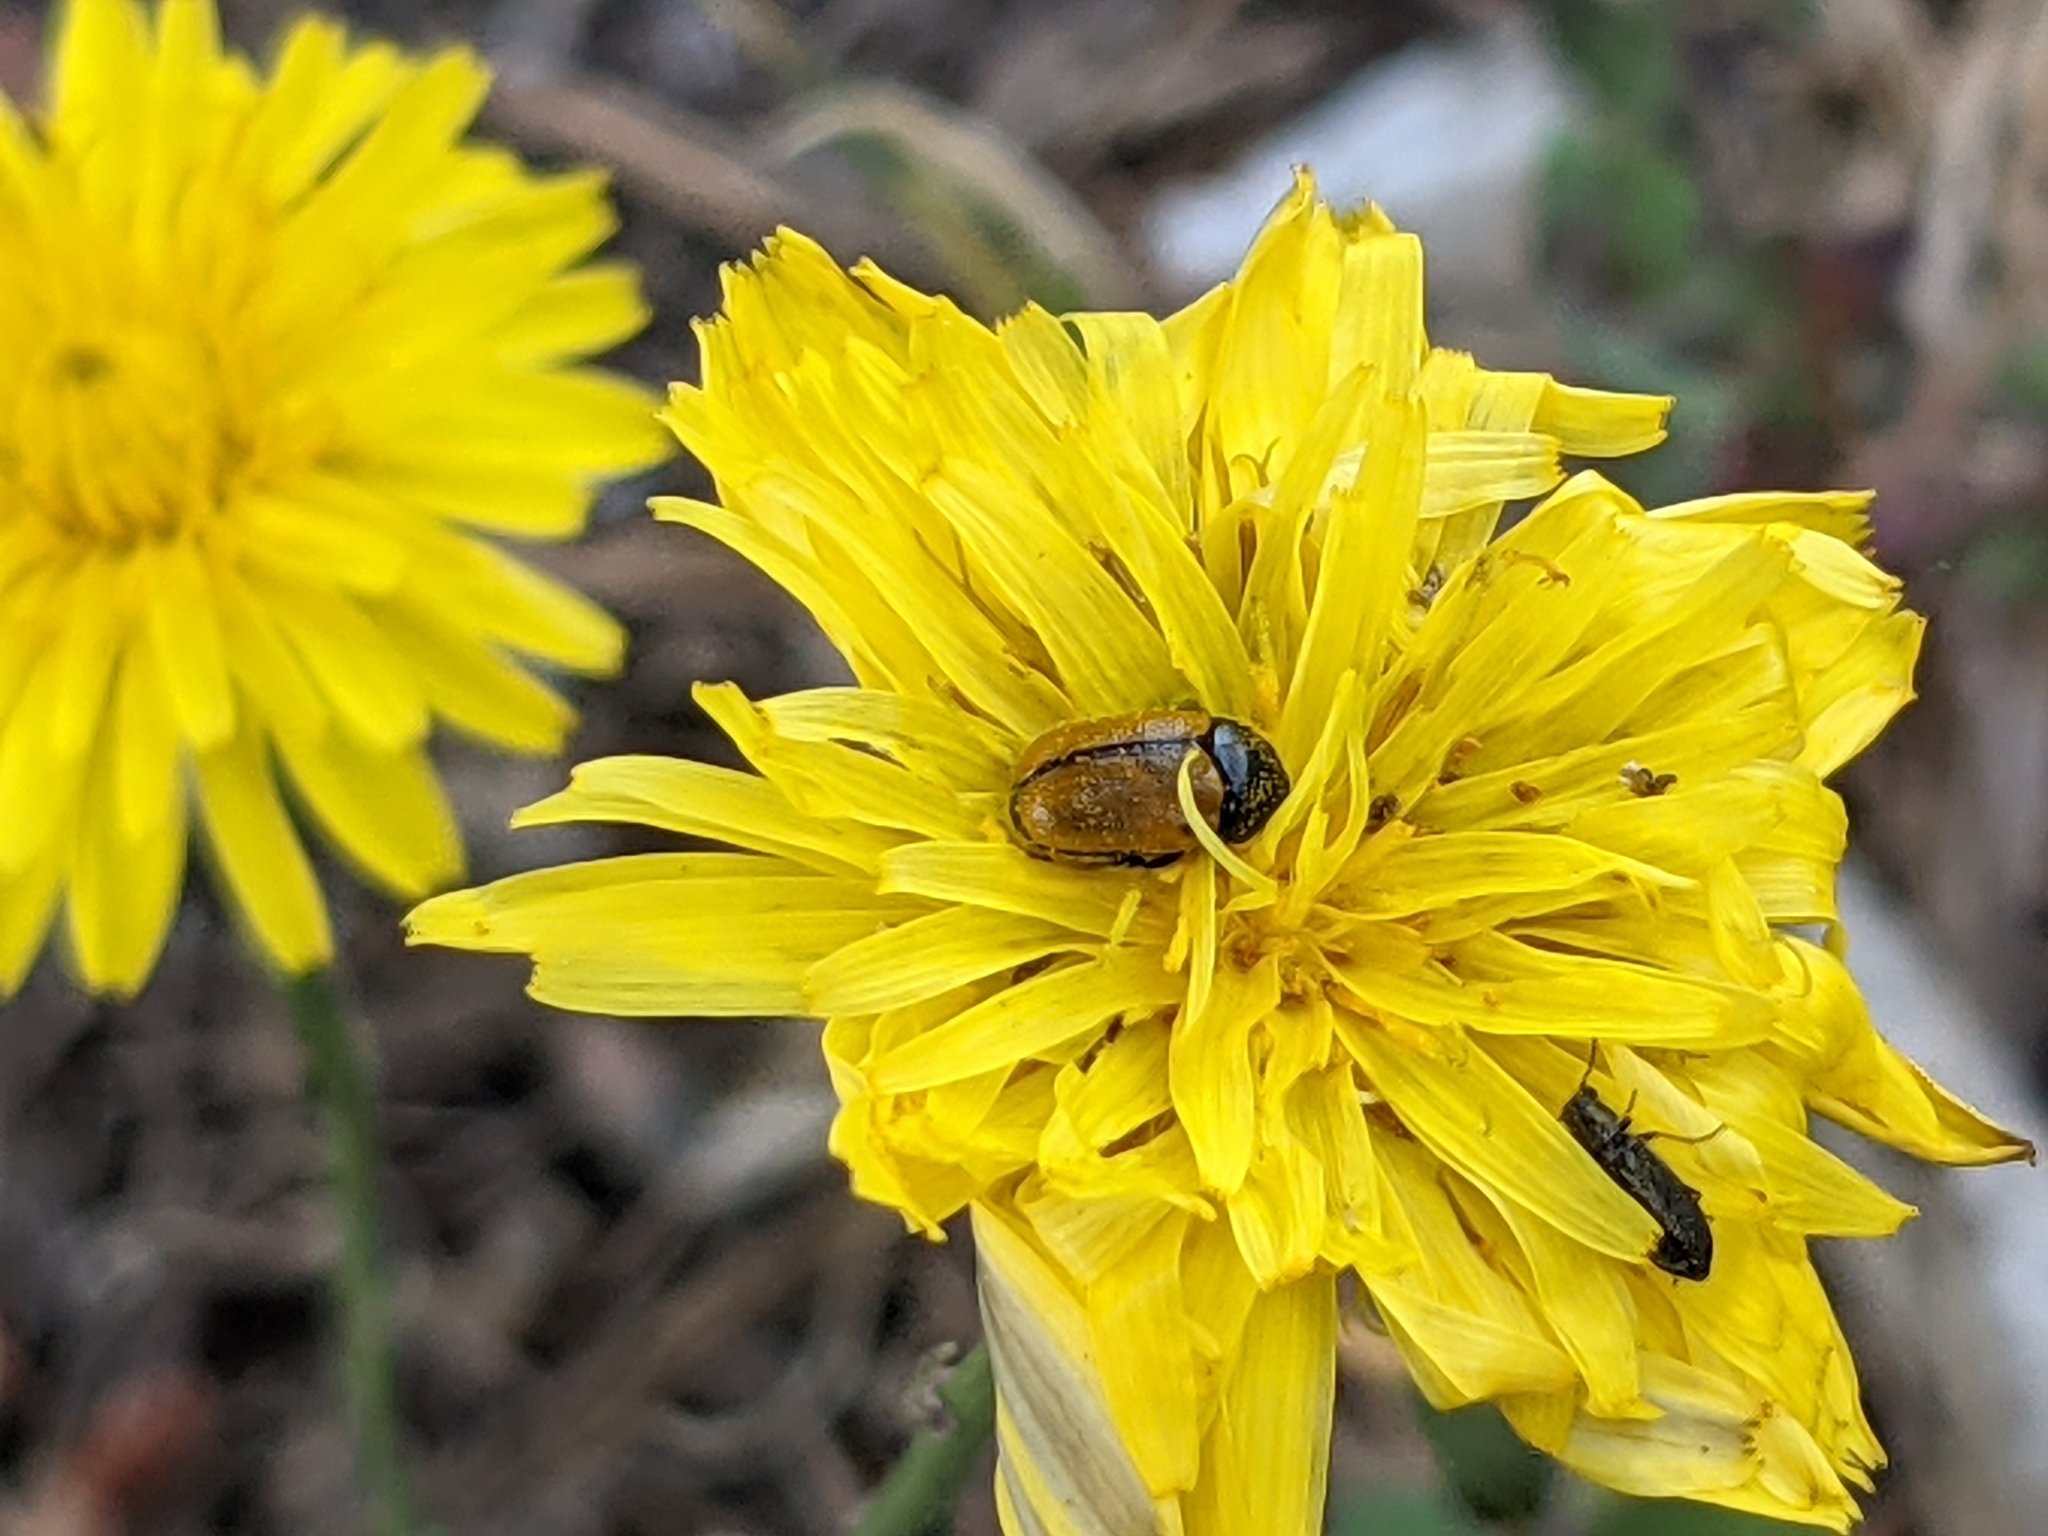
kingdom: Animalia
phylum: Arthropoda
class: Insecta
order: Coleoptera
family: Chrysomelidae
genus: Cryptocephalus
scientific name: Cryptocephalus rugicollis
